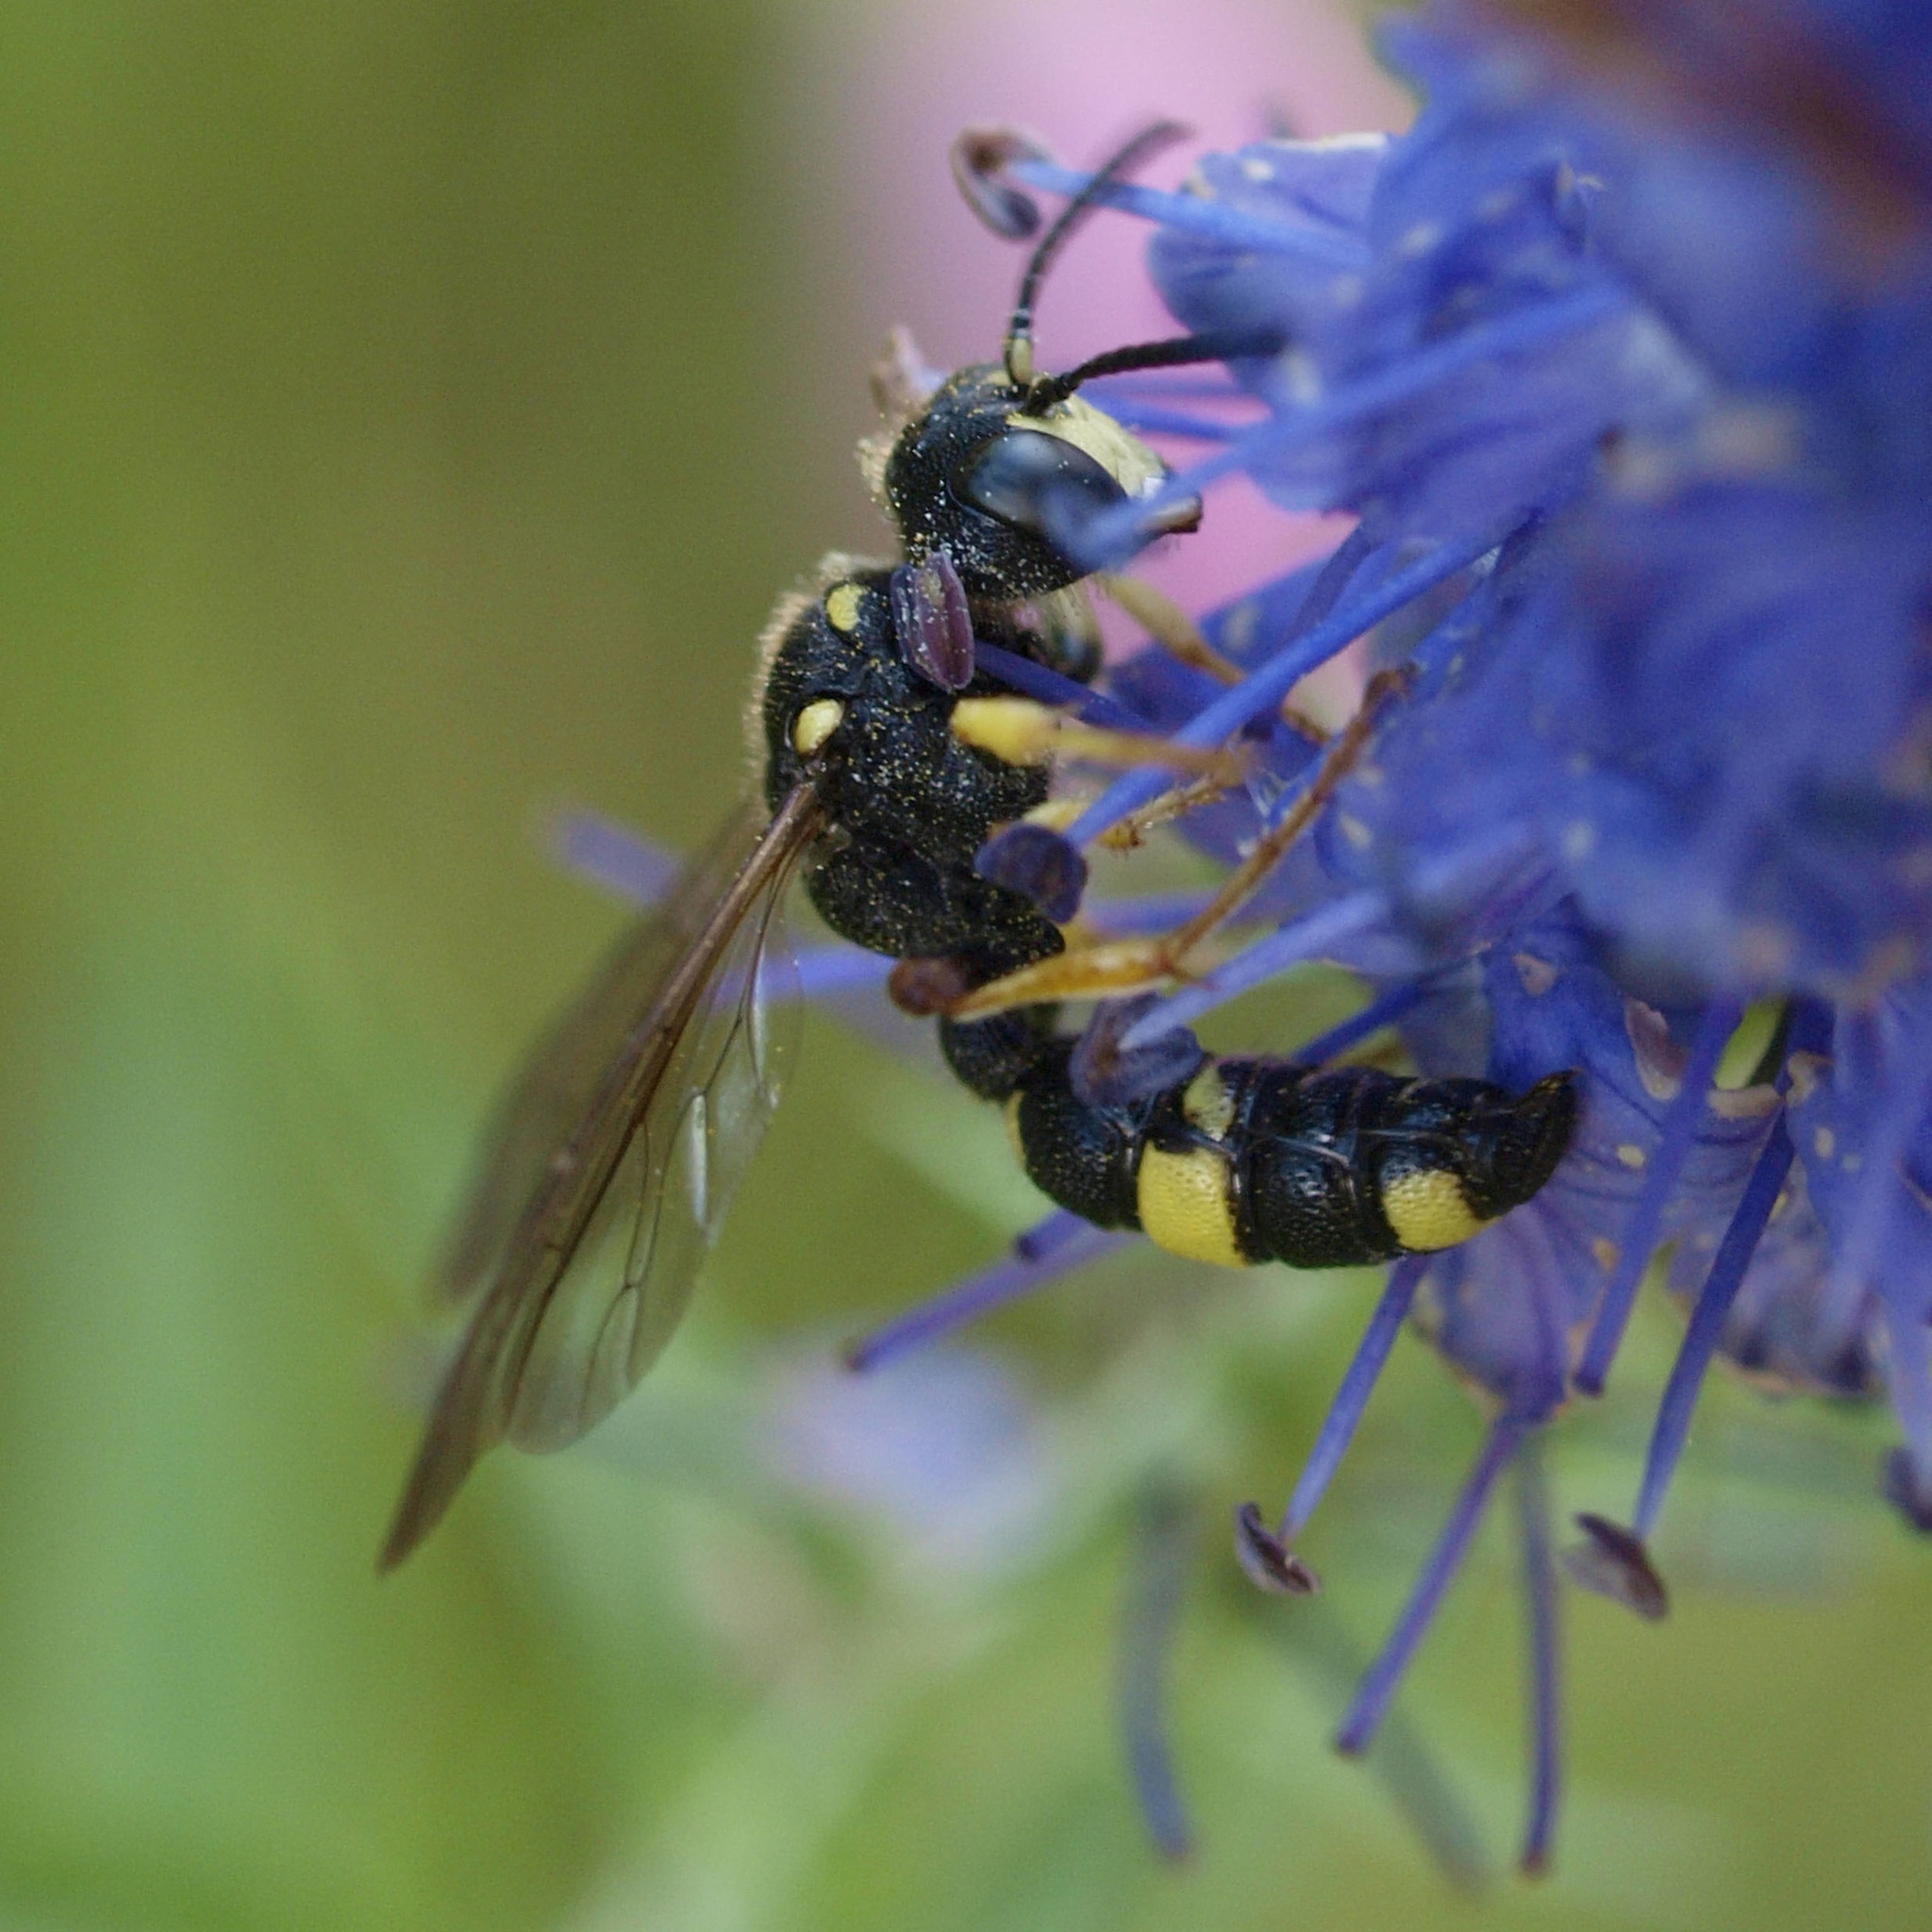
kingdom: Animalia
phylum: Arthropoda
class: Insecta
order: Hymenoptera
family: Crabronidae
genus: Cerceris
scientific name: Cerceris rybyensis
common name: Ornate tailed digger wasp
